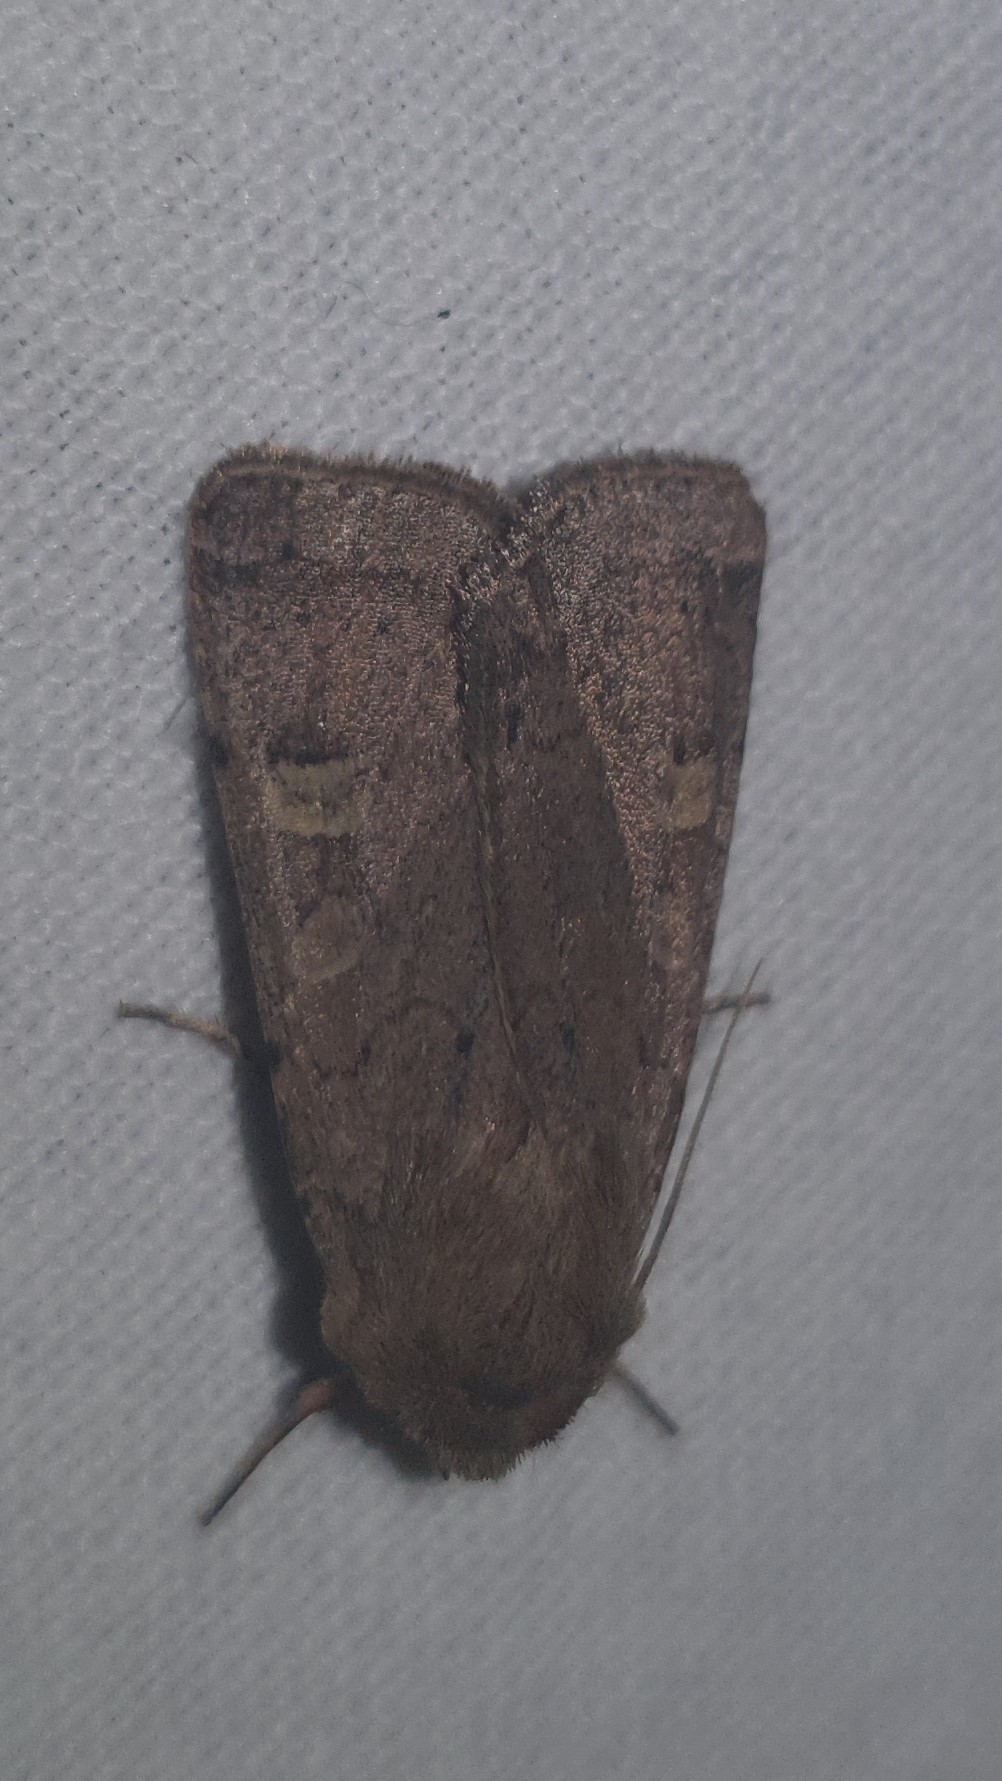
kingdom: Animalia
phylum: Arthropoda
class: Insecta
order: Lepidoptera
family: Noctuidae
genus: Xestia
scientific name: Xestia xanthographa
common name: Square-spot rustic
